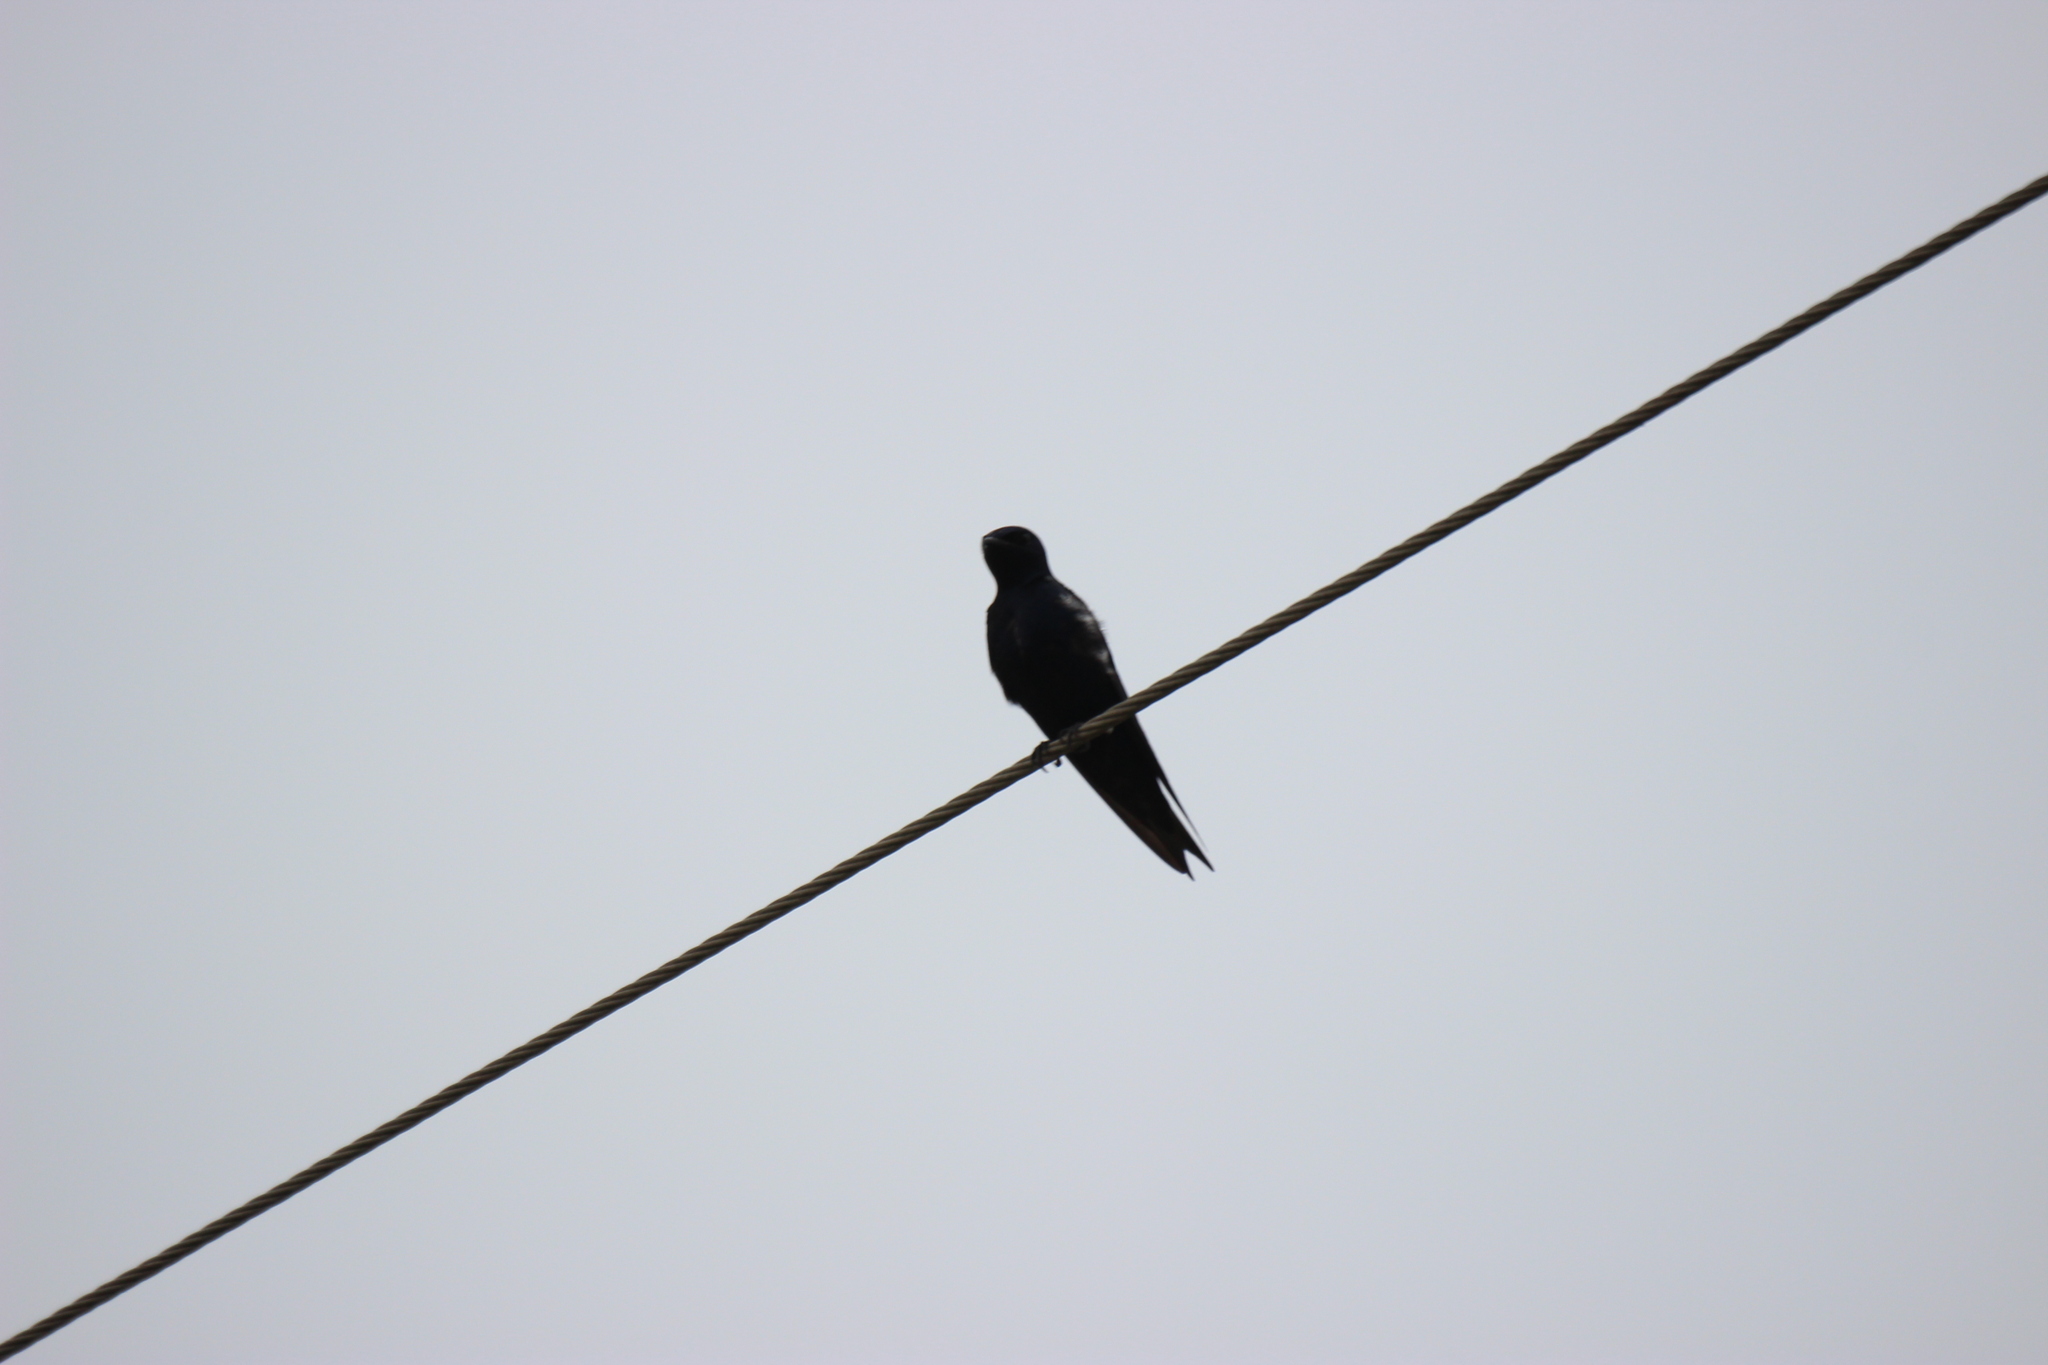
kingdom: Animalia
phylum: Chordata
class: Aves
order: Passeriformes
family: Hirundinidae
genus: Progne
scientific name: Progne subis
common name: Purple martin
